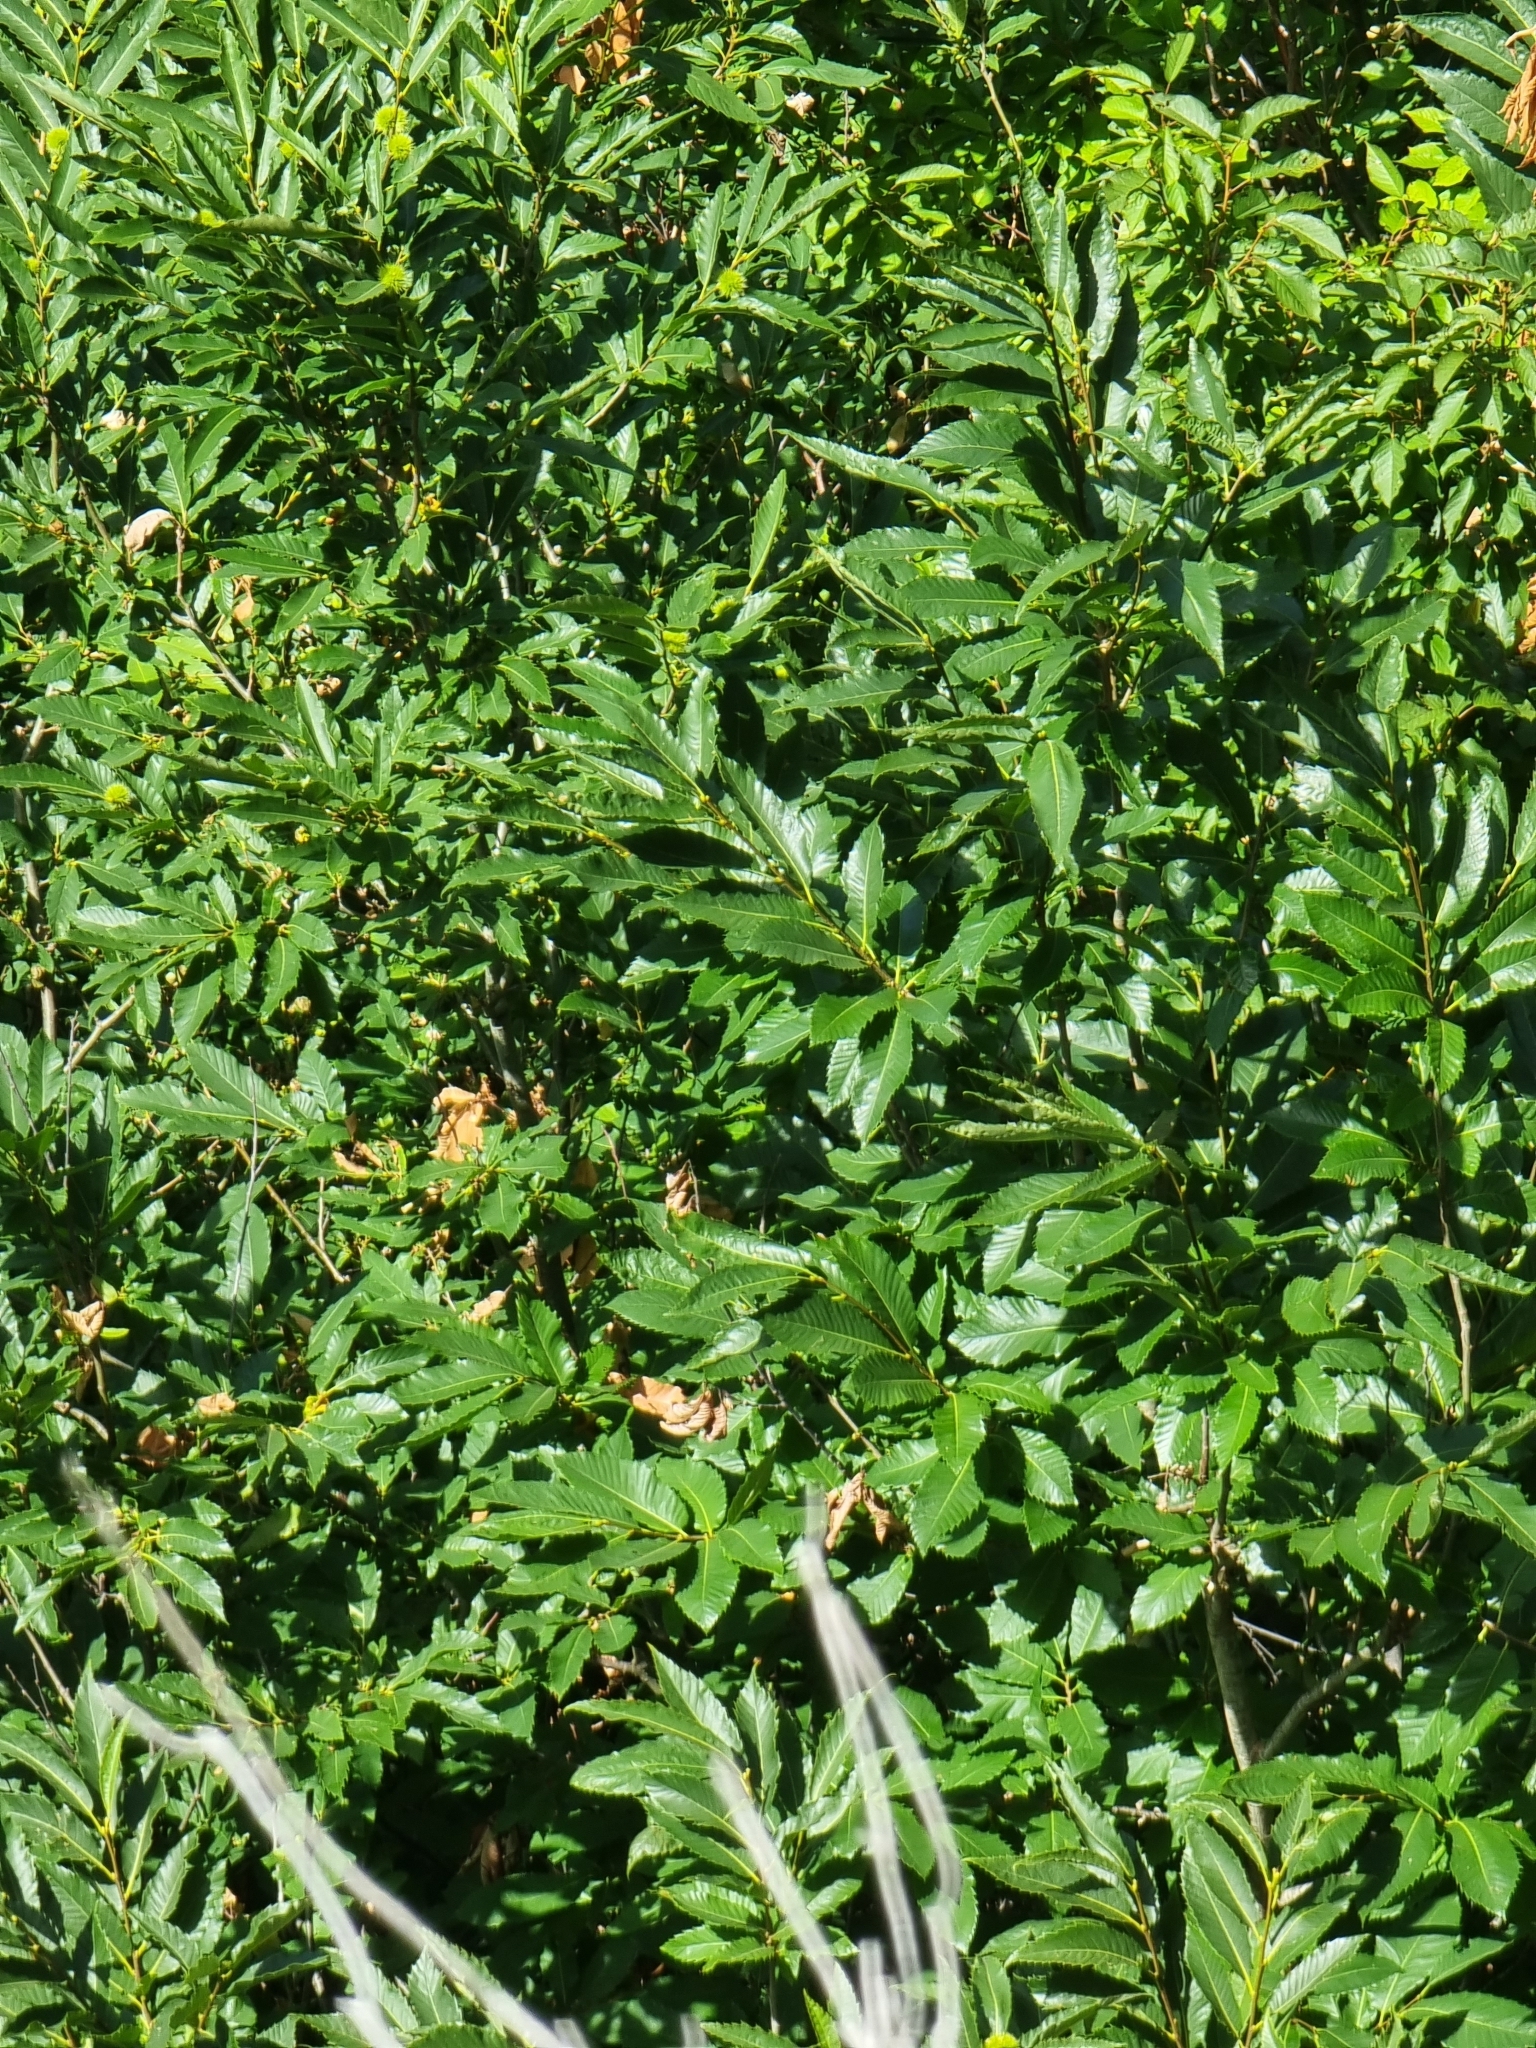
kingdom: Plantae
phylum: Tracheophyta
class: Magnoliopsida
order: Fagales
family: Fagaceae
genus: Castanea
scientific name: Castanea sativa
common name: Sweet chestnut
